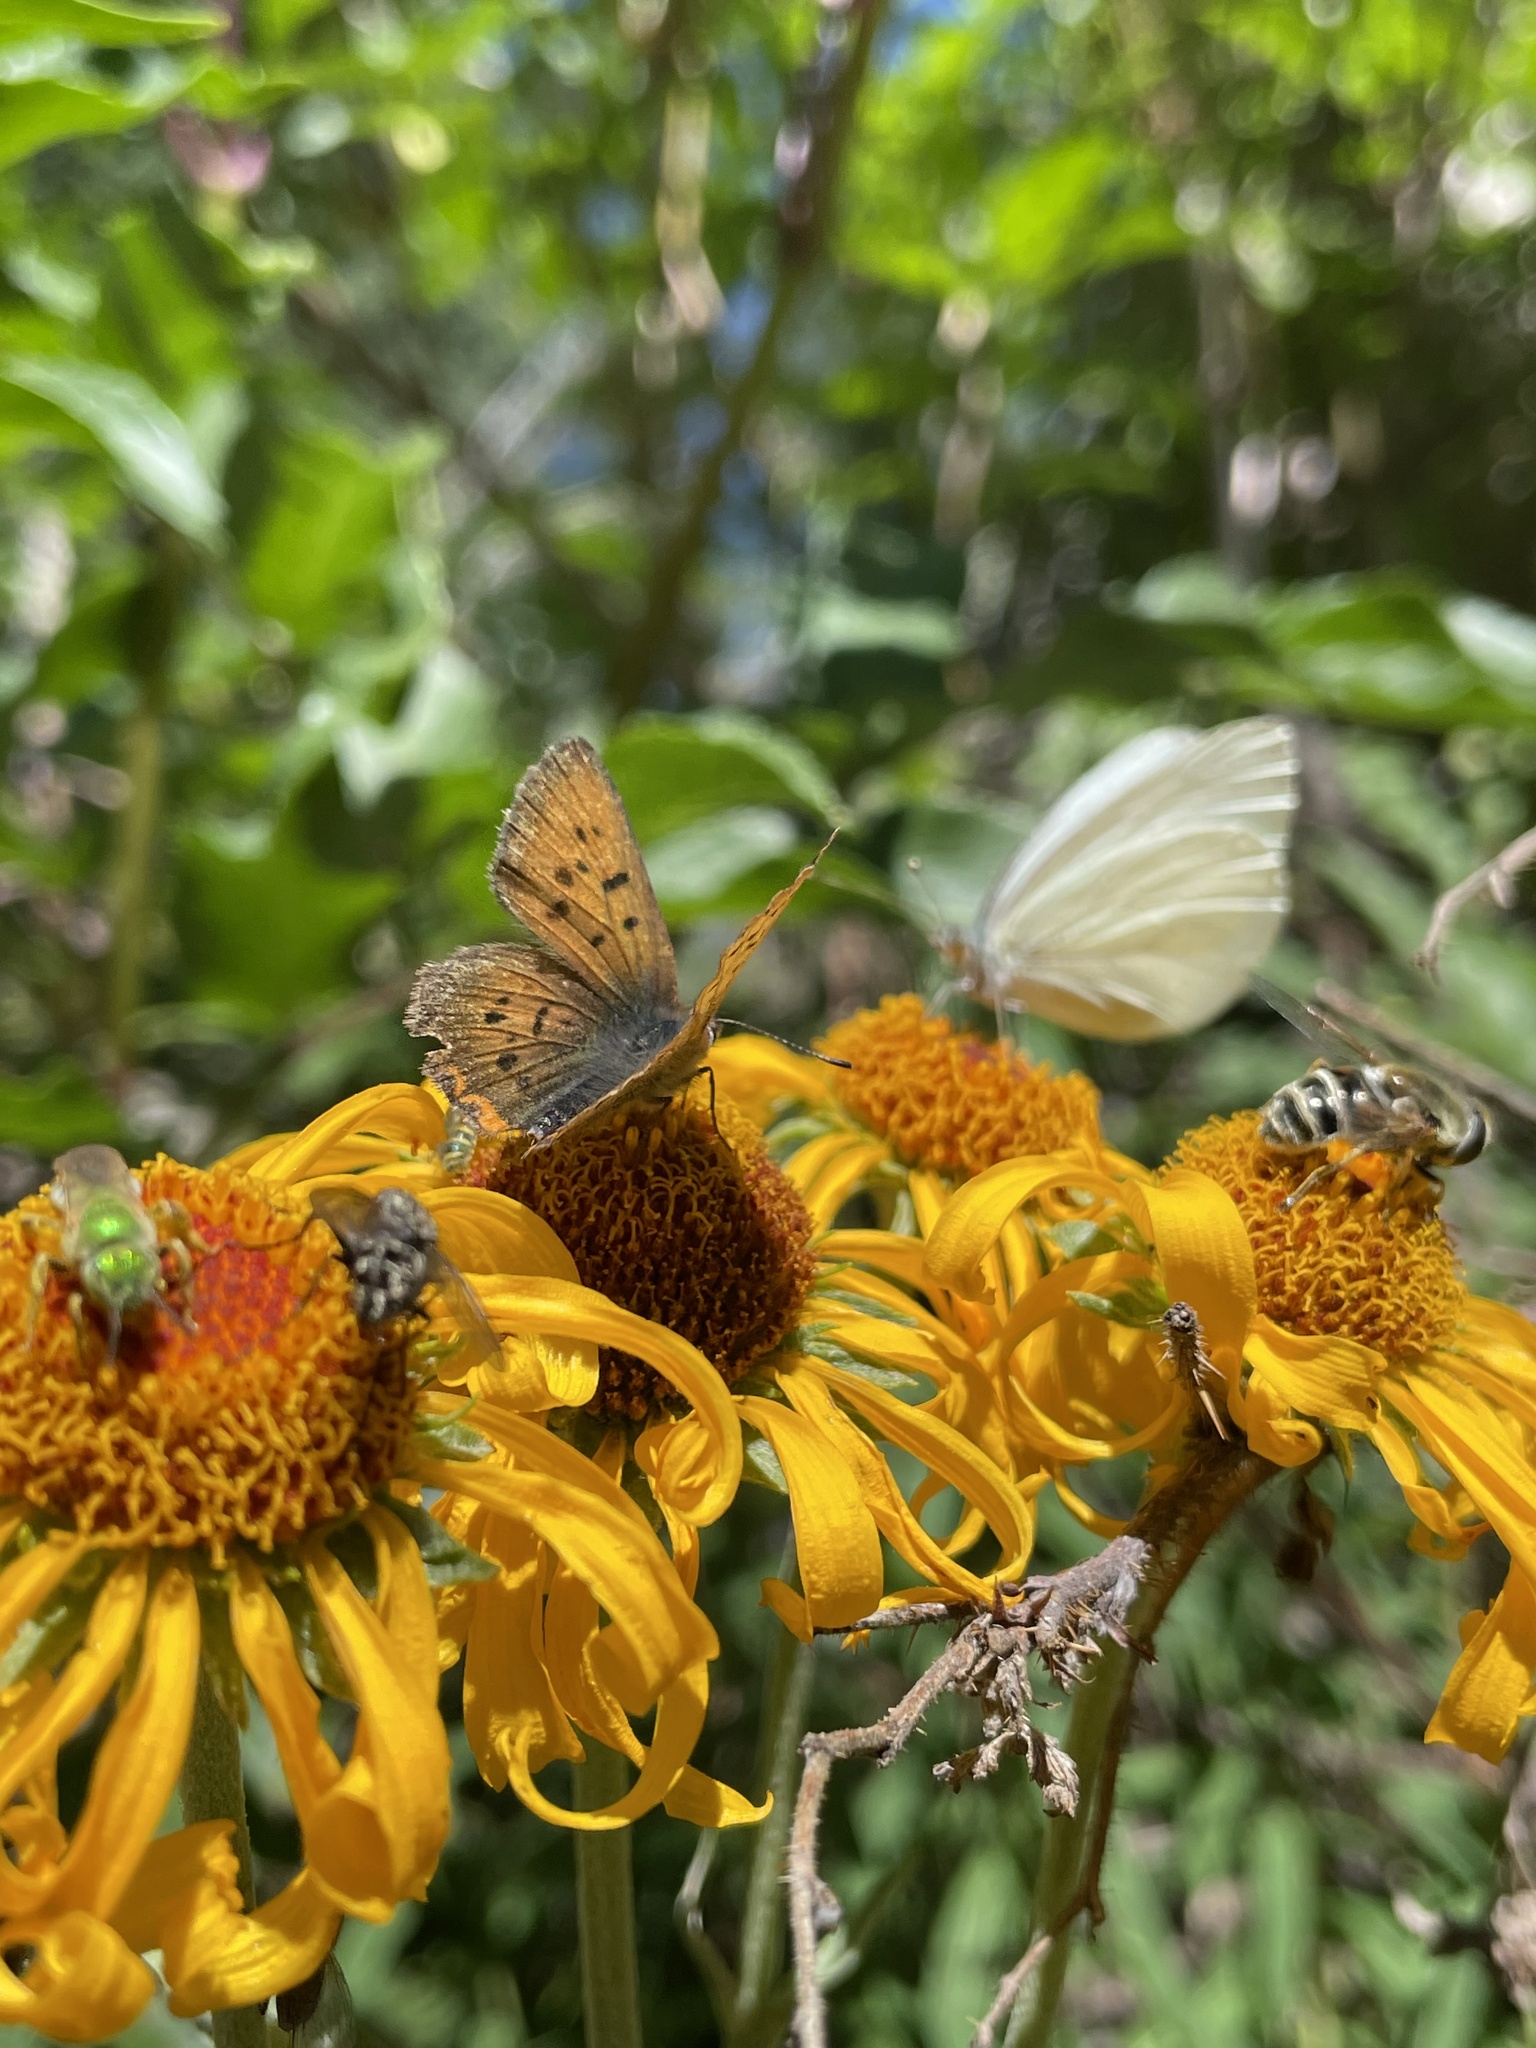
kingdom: Animalia
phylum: Arthropoda
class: Insecta
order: Lepidoptera
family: Lycaenidae
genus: Tharsalea
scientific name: Tharsalea helloides
